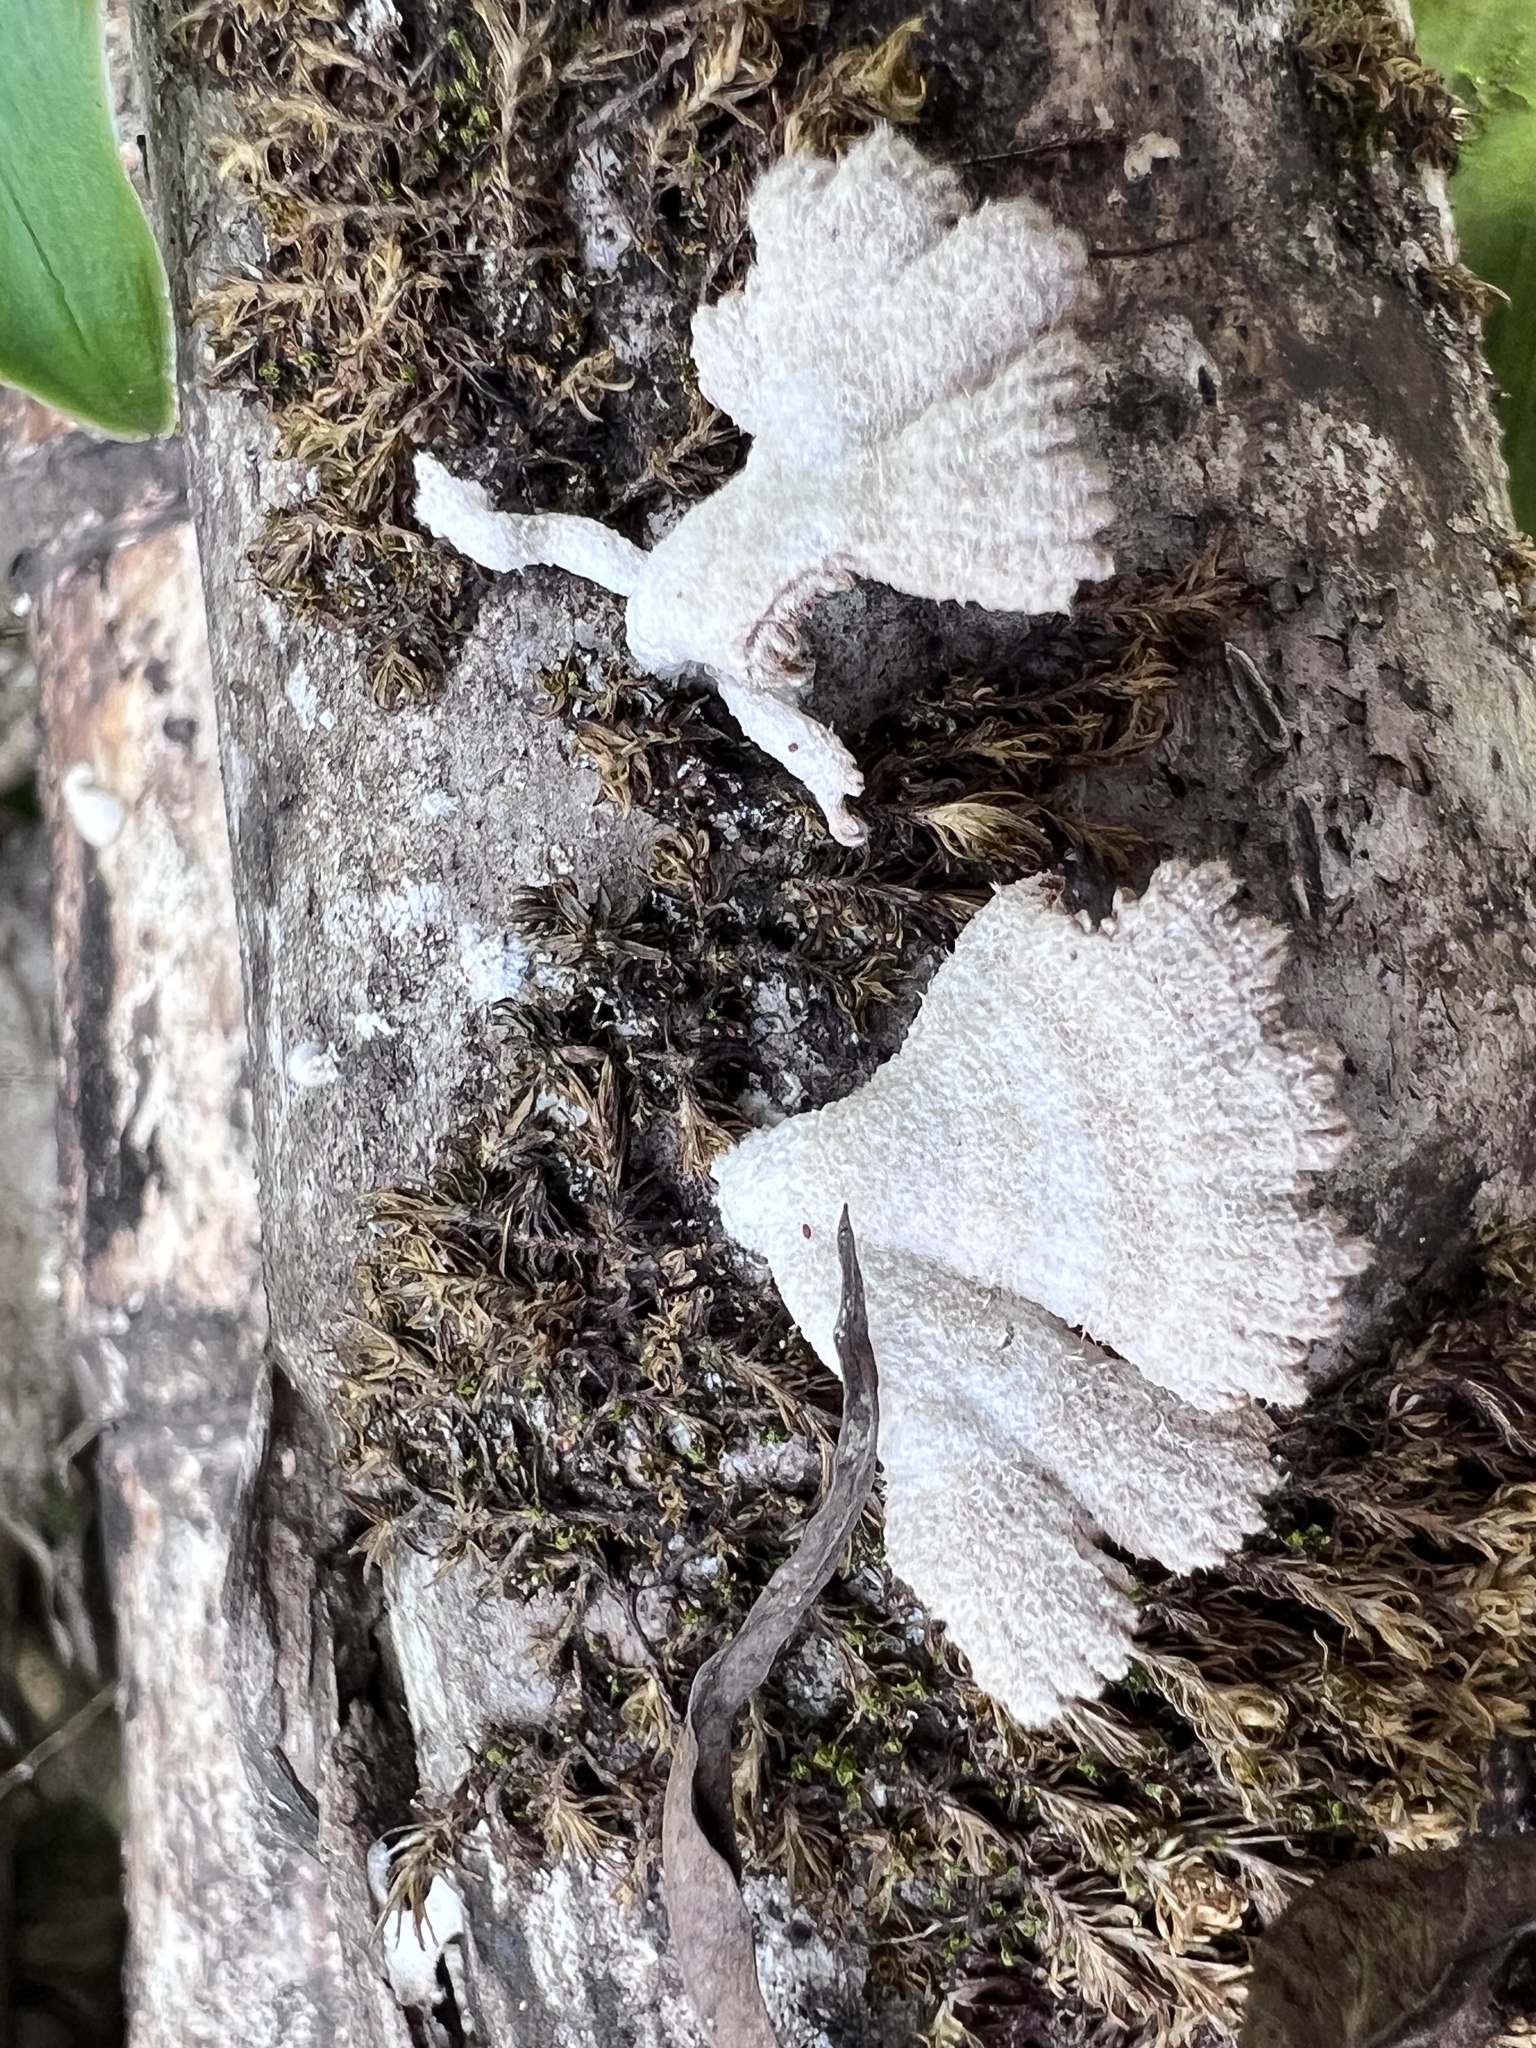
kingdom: Fungi
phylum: Basidiomycota
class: Agaricomycetes
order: Agaricales
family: Schizophyllaceae
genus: Schizophyllum
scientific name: Schizophyllum commune
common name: Common porecrust
